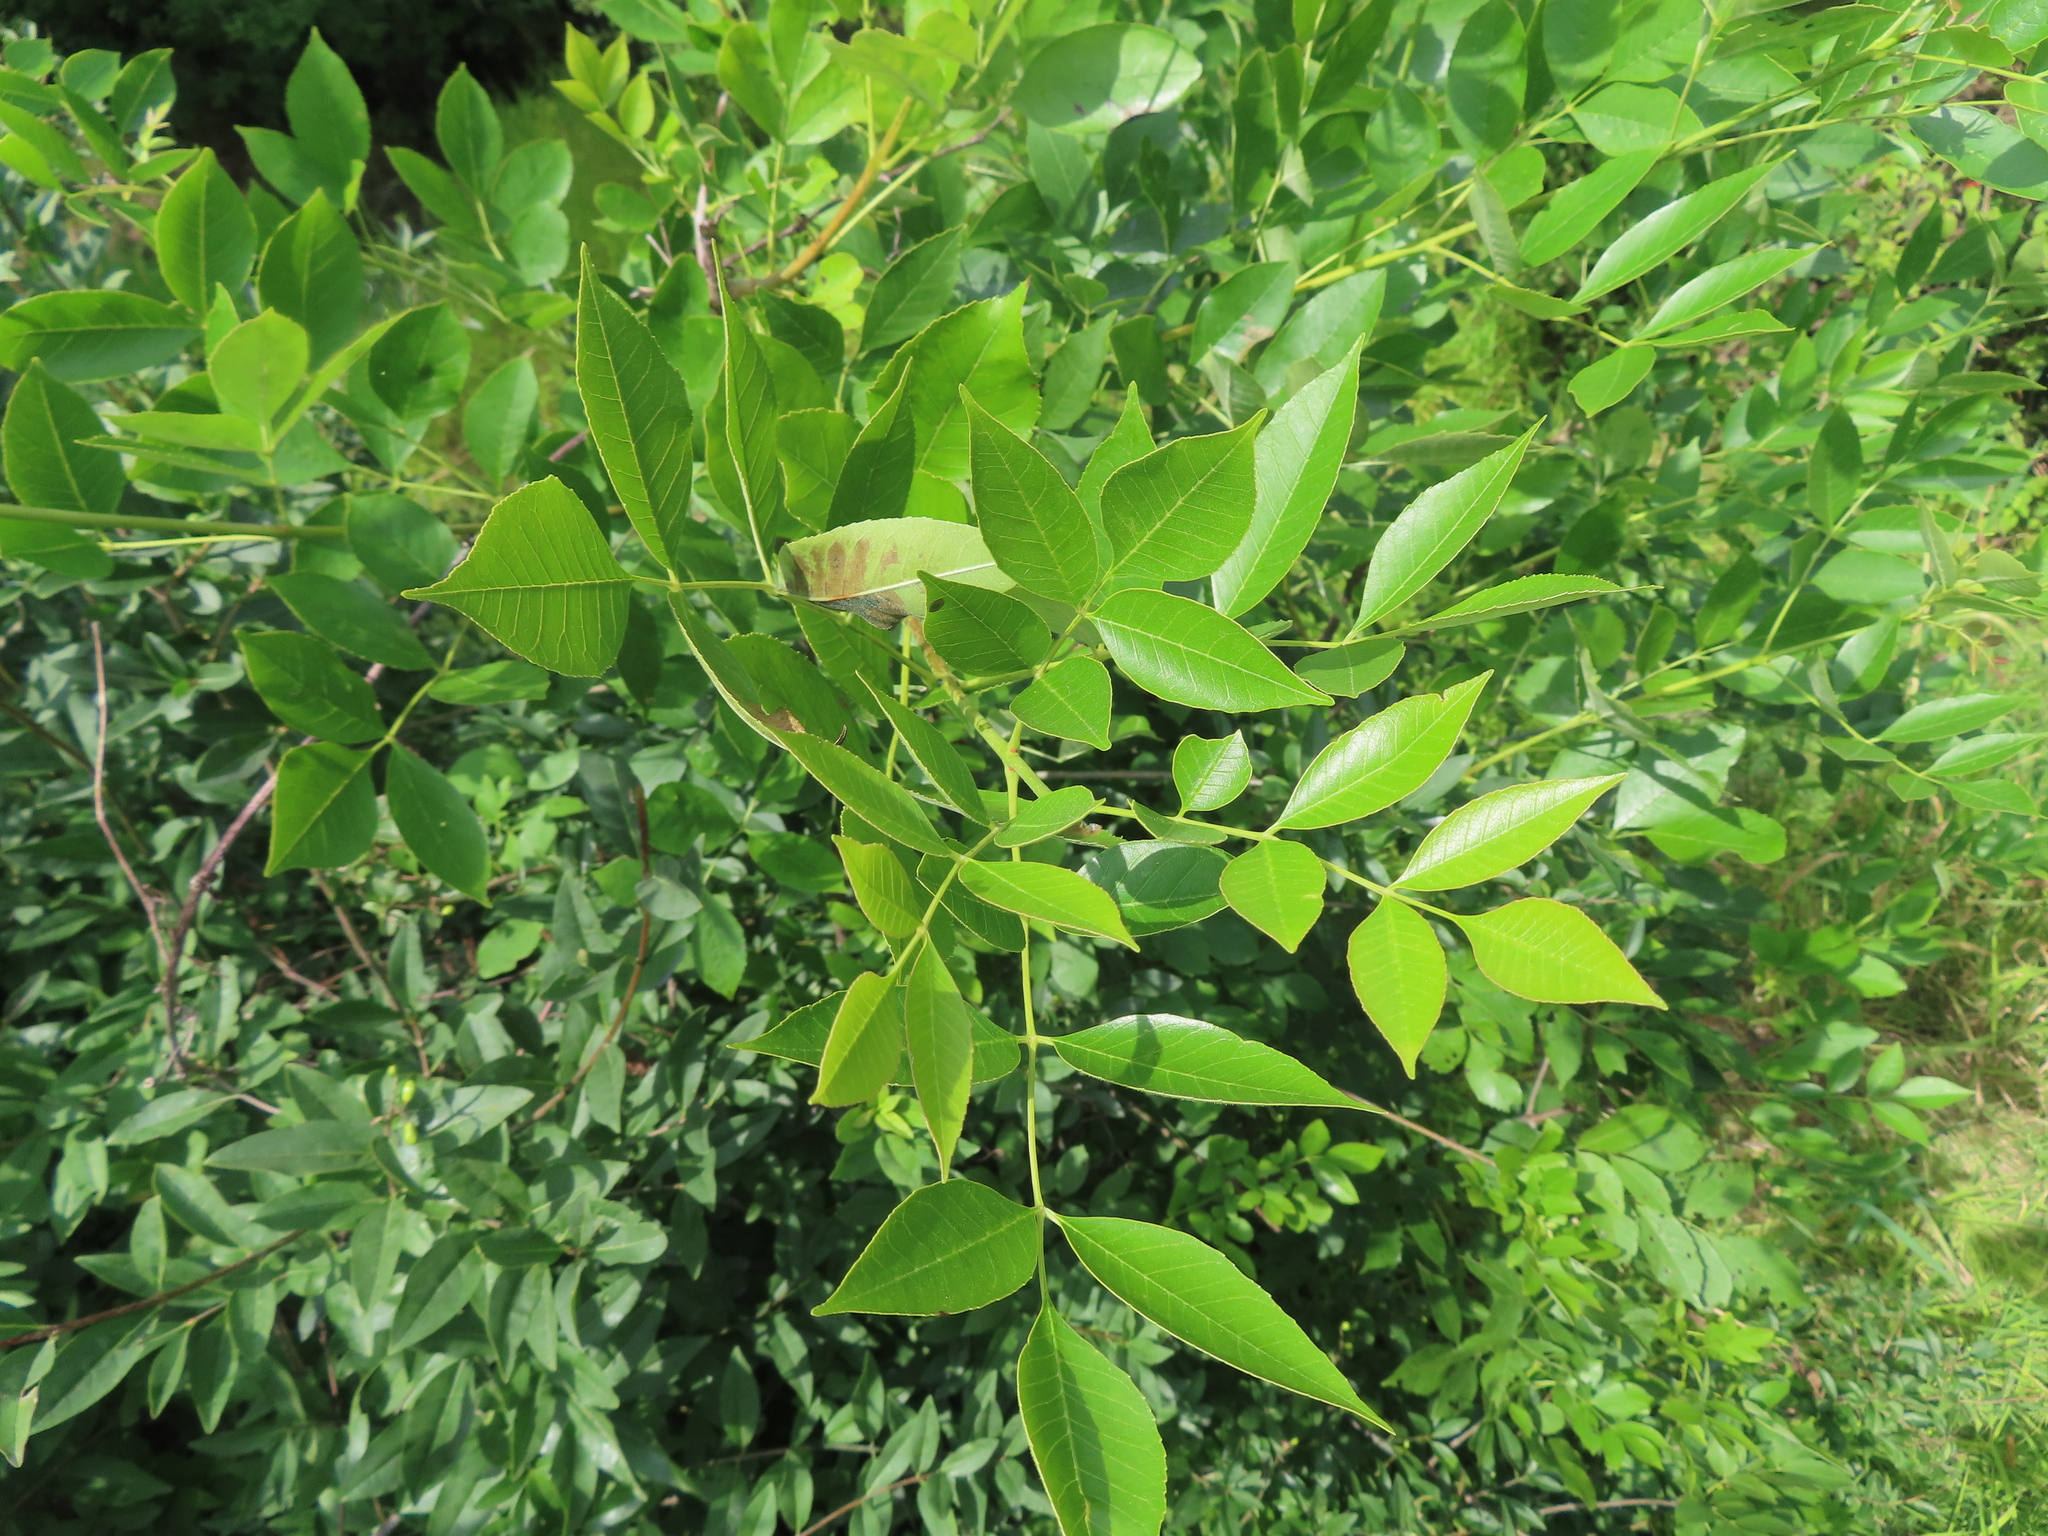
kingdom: Plantae
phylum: Tracheophyta
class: Magnoliopsida
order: Lamiales
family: Oleaceae
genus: Fraxinus
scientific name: Fraxinus pennsylvanica
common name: Green ash
